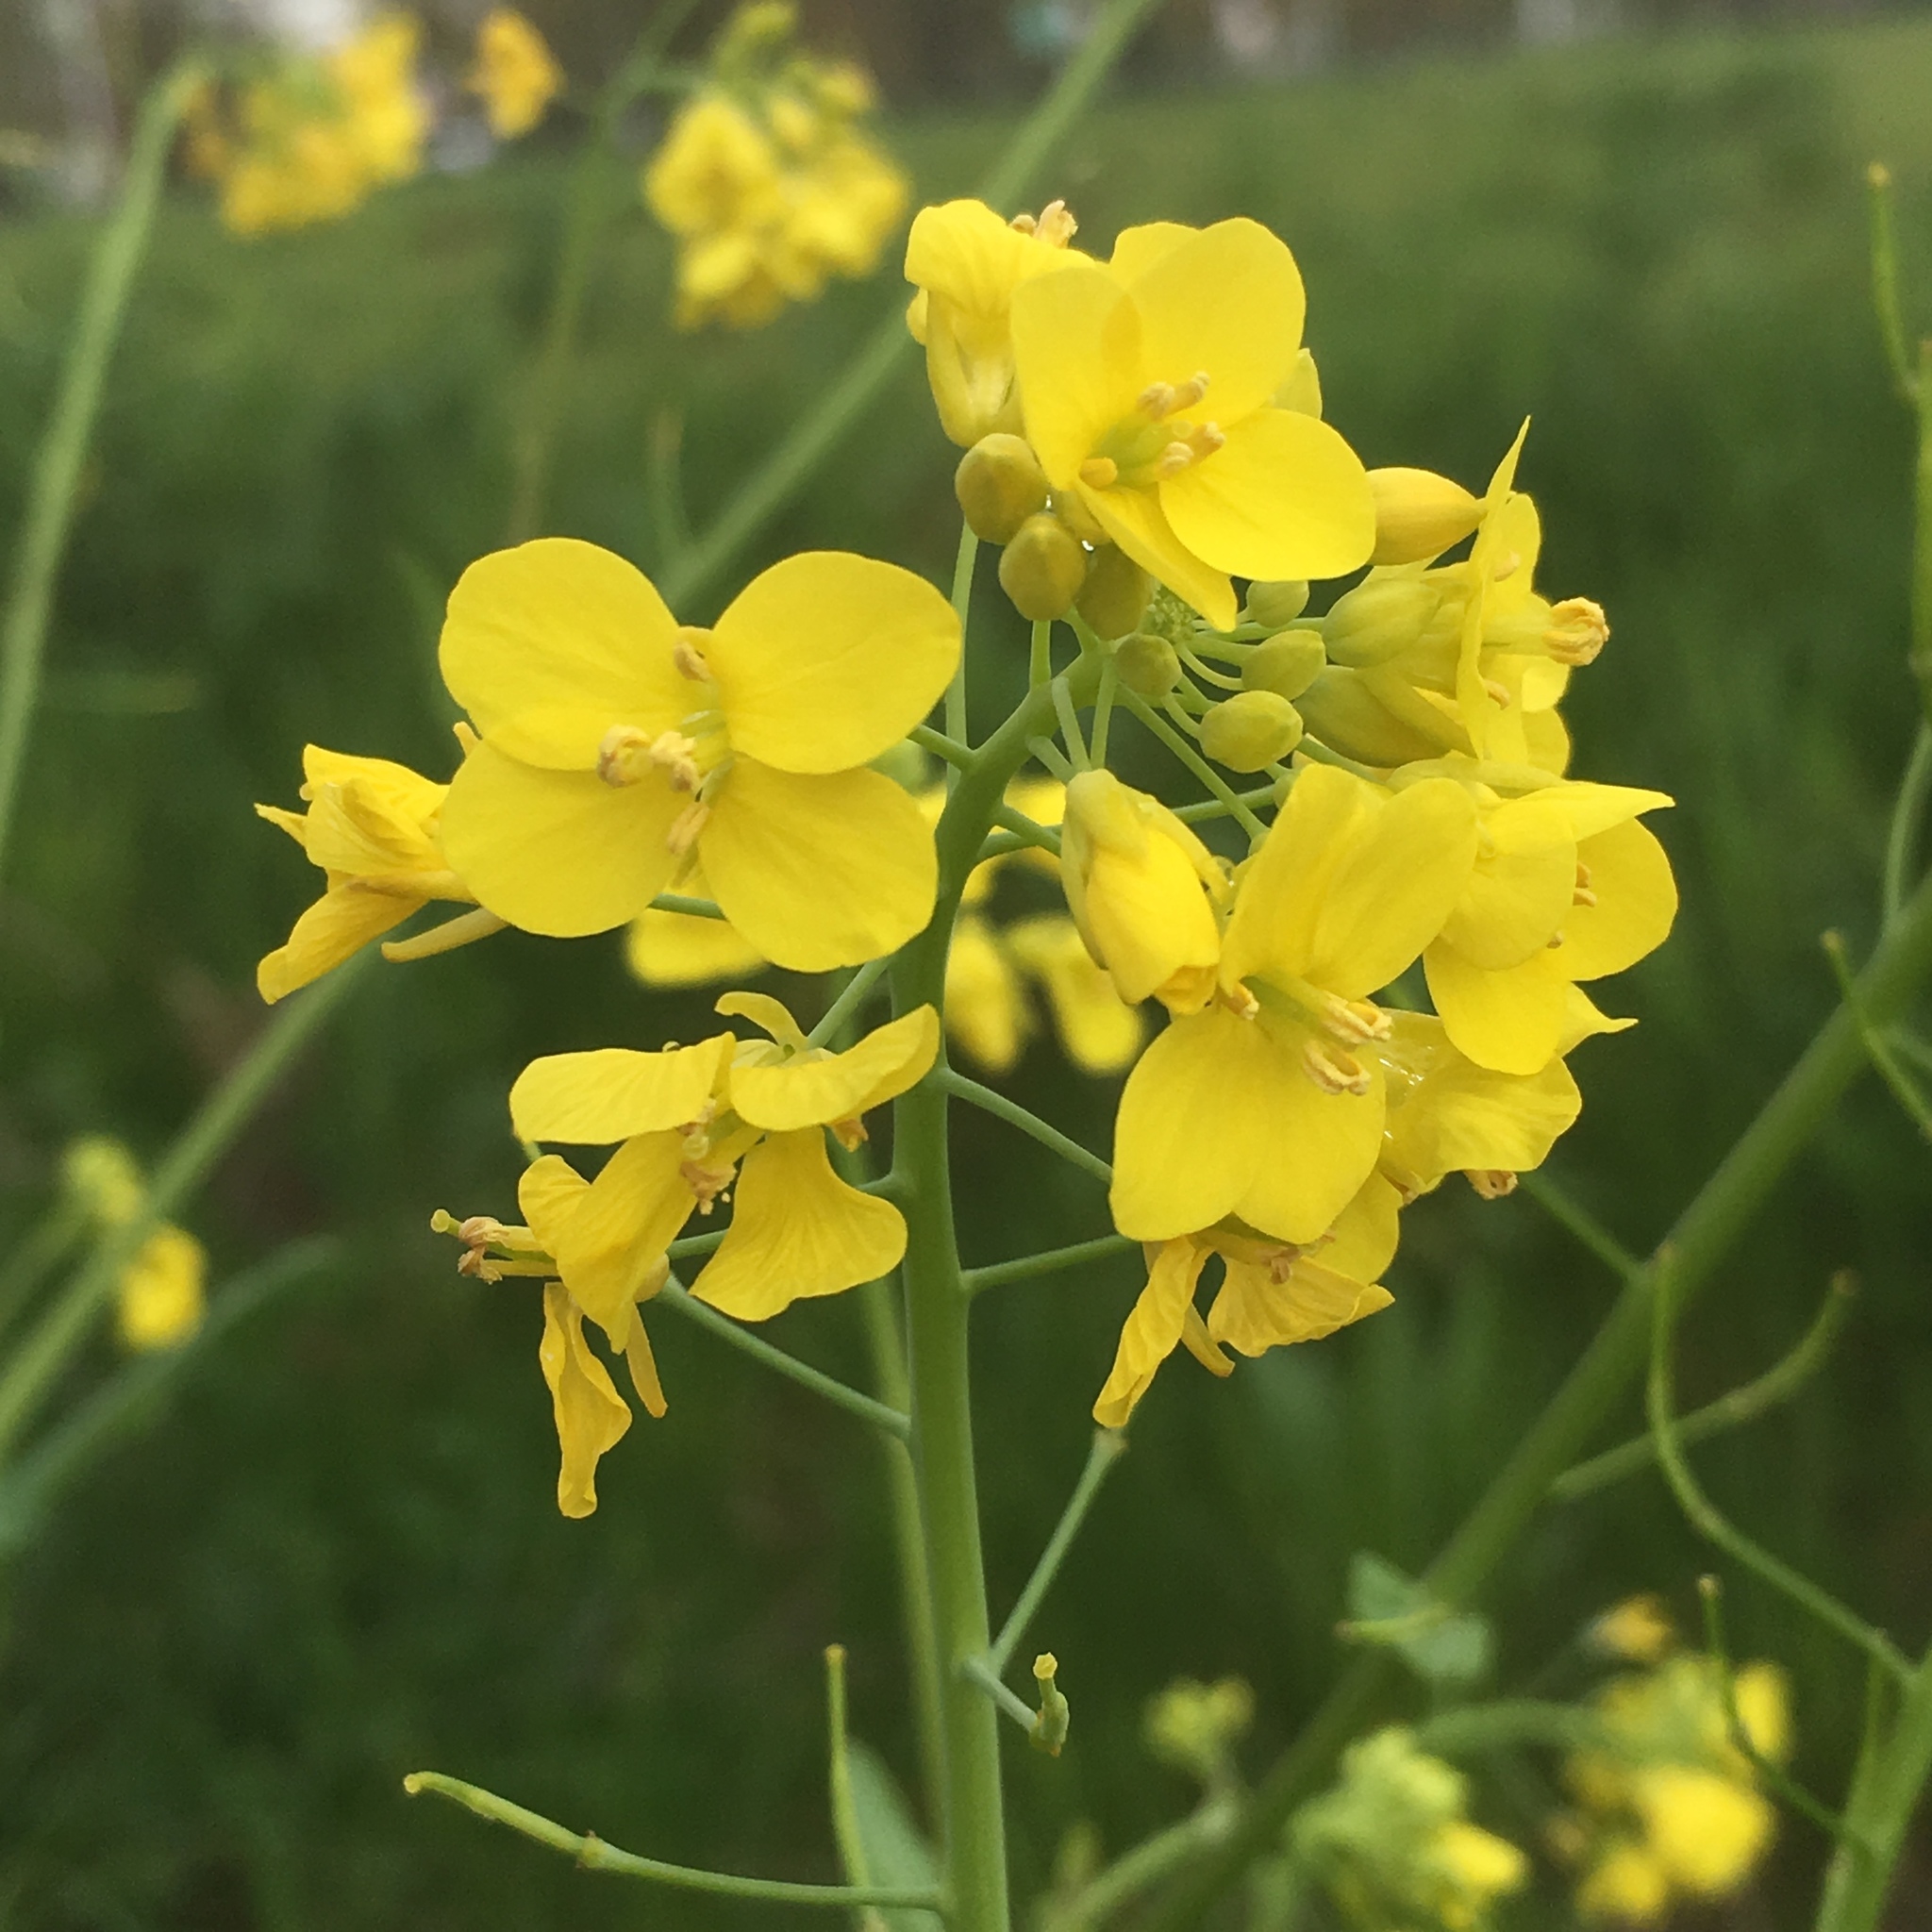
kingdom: Plantae
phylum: Tracheophyta
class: Magnoliopsida
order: Brassicales
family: Brassicaceae
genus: Brassica
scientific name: Brassica rapa
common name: Field mustard
